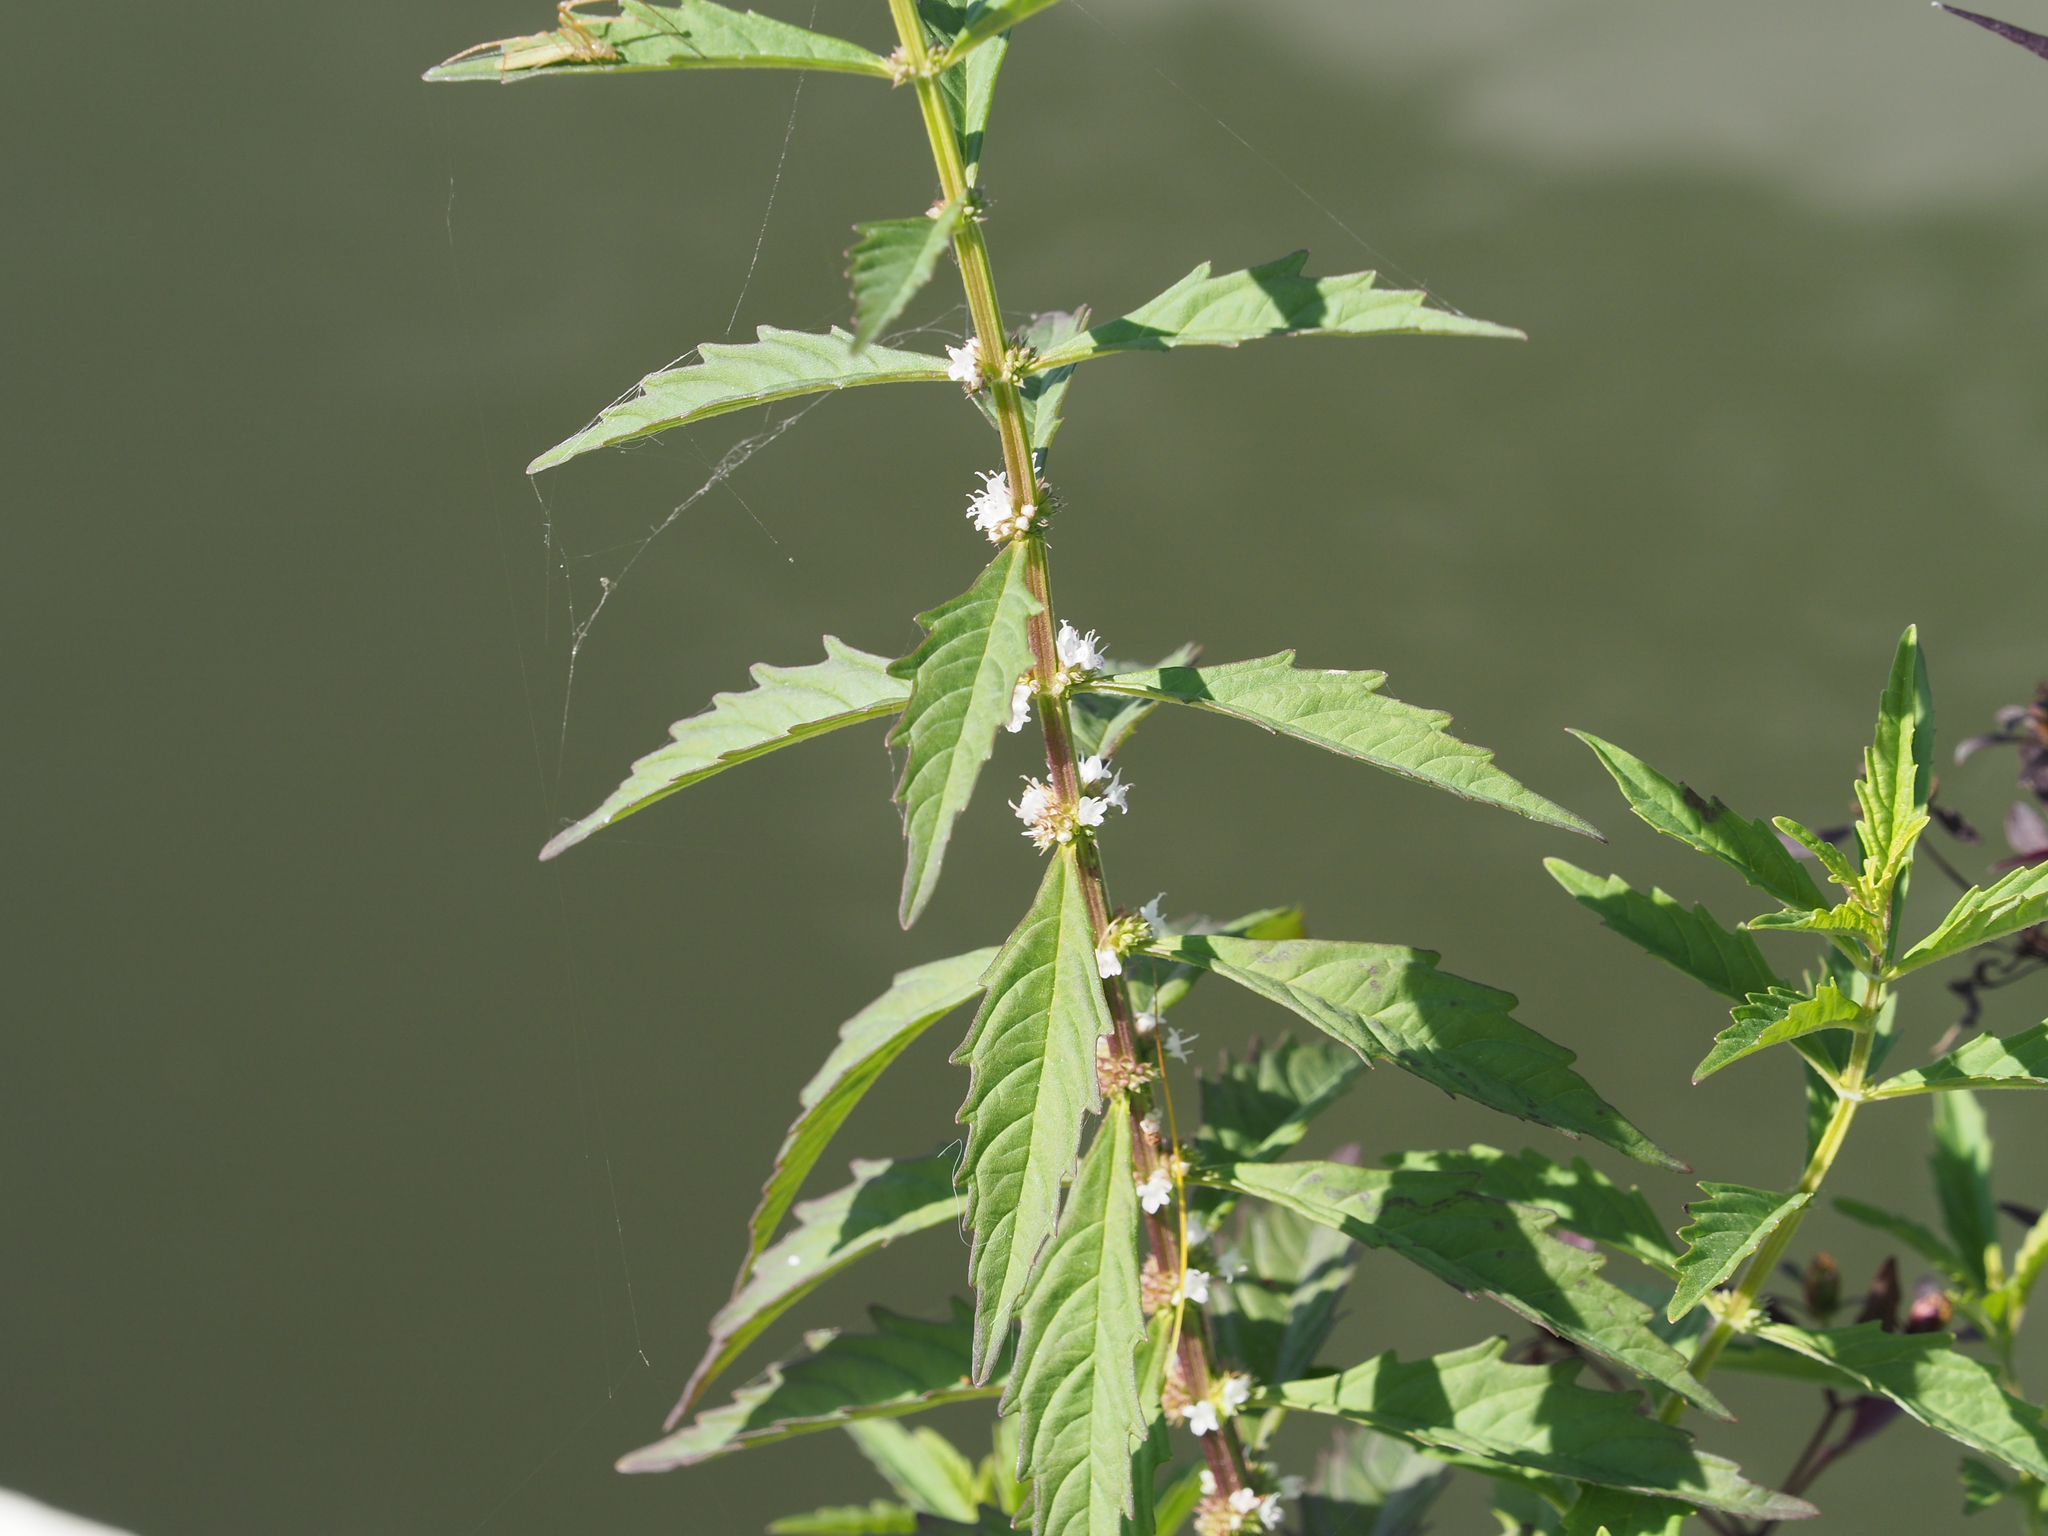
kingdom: Plantae
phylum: Tracheophyta
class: Magnoliopsida
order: Lamiales
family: Lamiaceae
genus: Lycopus
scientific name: Lycopus uniflorus
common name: Northern bugleweed
